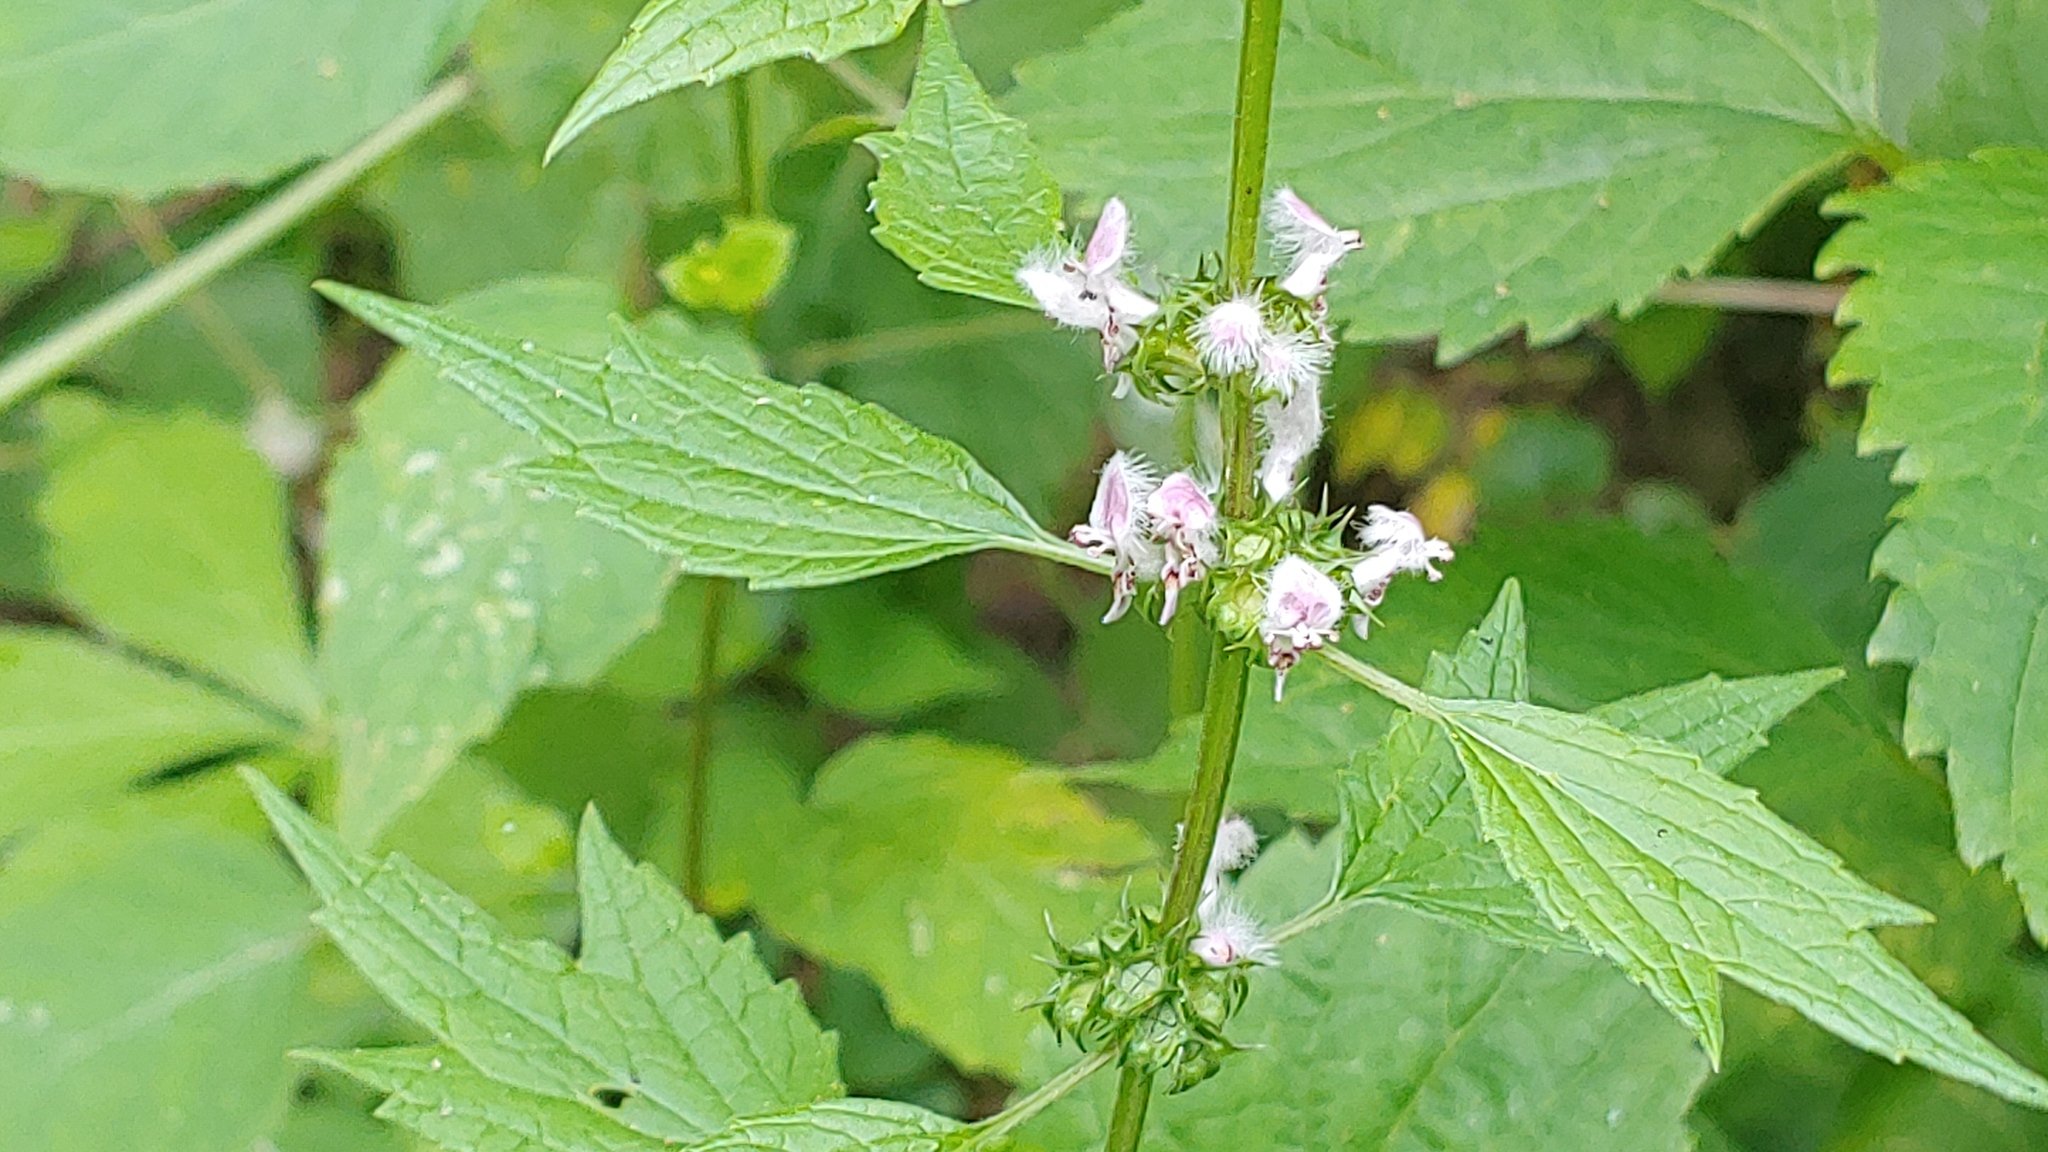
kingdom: Plantae
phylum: Tracheophyta
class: Magnoliopsida
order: Lamiales
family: Lamiaceae
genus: Leonurus
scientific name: Leonurus cardiaca
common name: Motherwort
